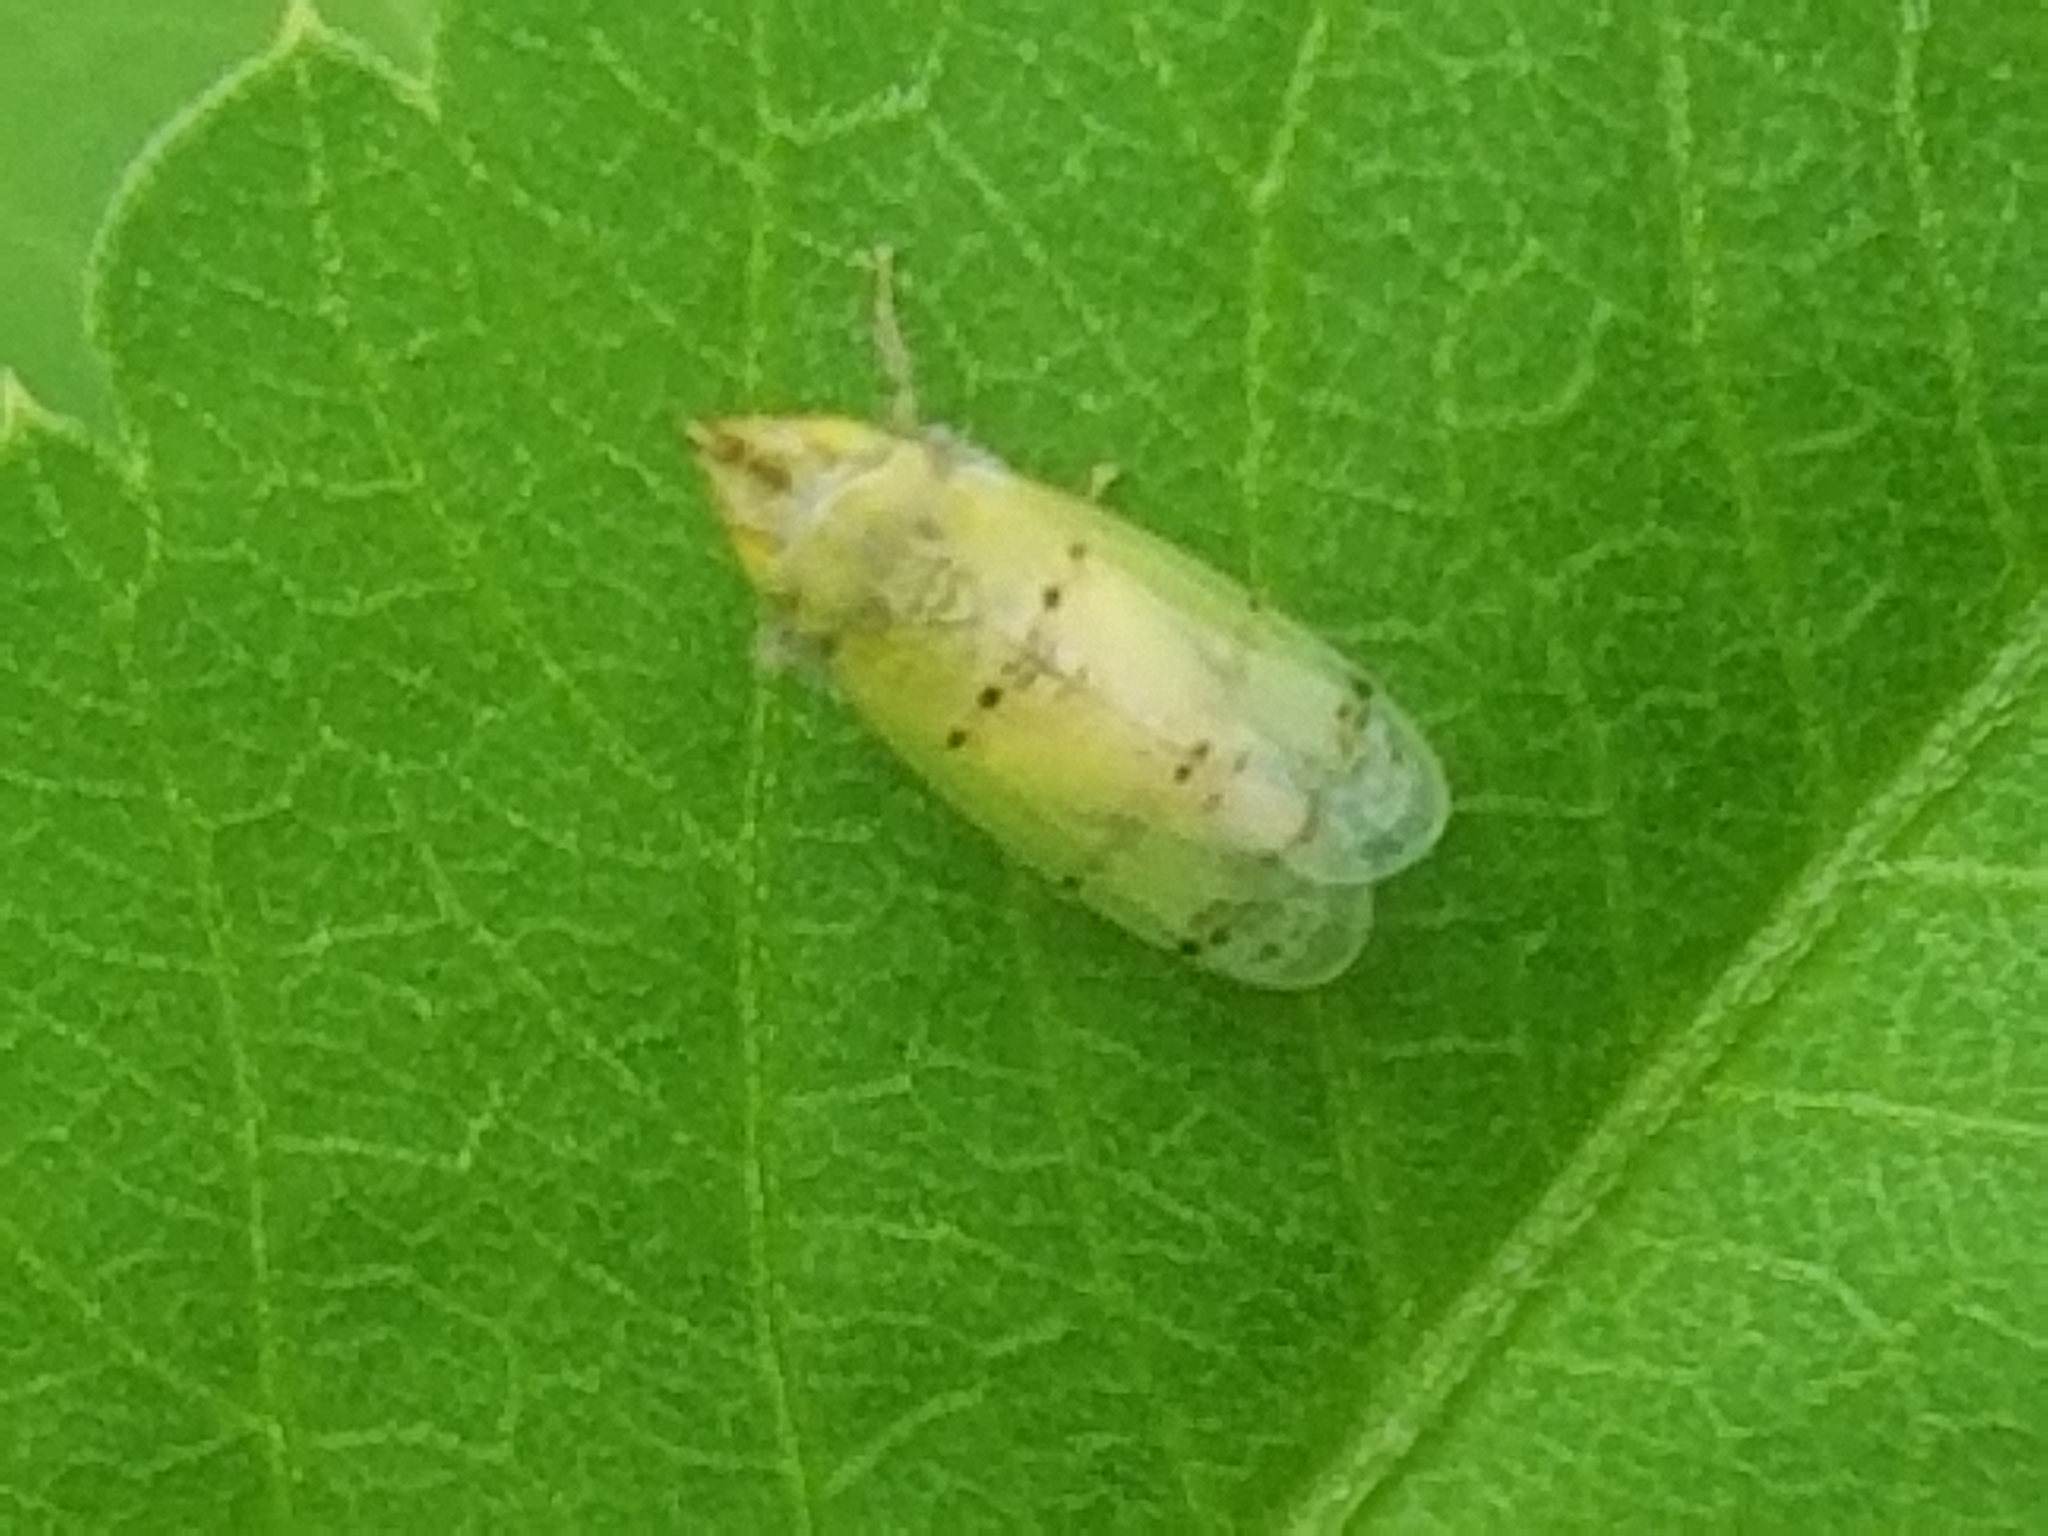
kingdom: Animalia
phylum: Arthropoda
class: Insecta
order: Hemiptera
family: Cicadellidae
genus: Japananus
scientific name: Japananus hyalinus
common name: The japanese maple leafhopper
